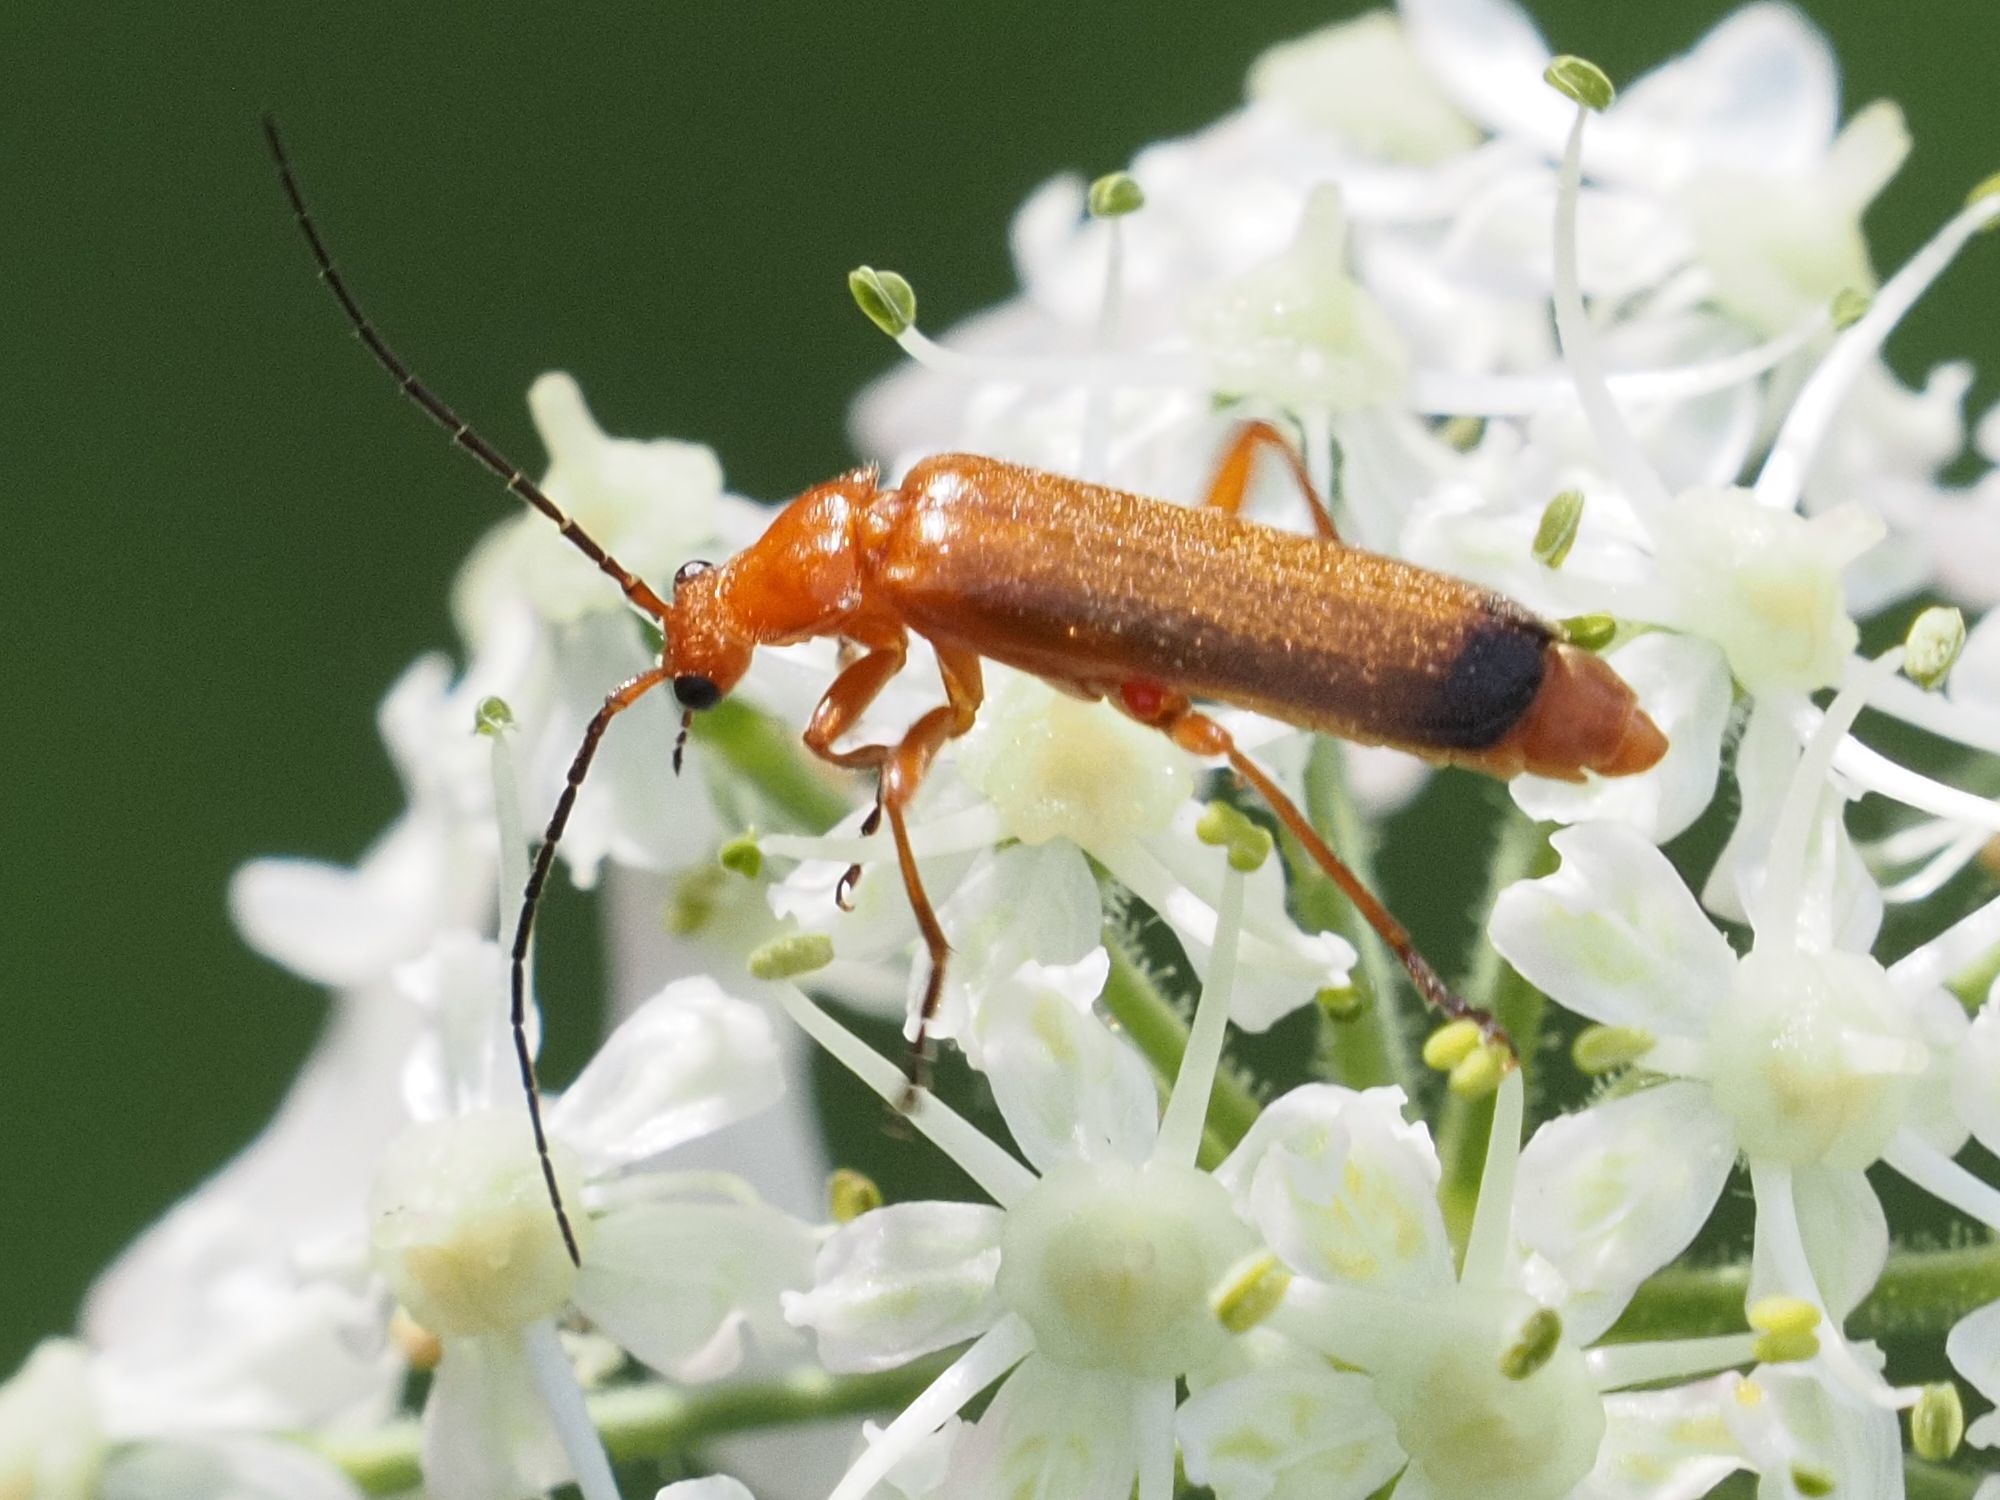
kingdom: Animalia
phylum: Arthropoda
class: Insecta
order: Coleoptera
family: Cantharidae
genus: Rhagonycha
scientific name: Rhagonycha fulva
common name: Common red soldier beetle
